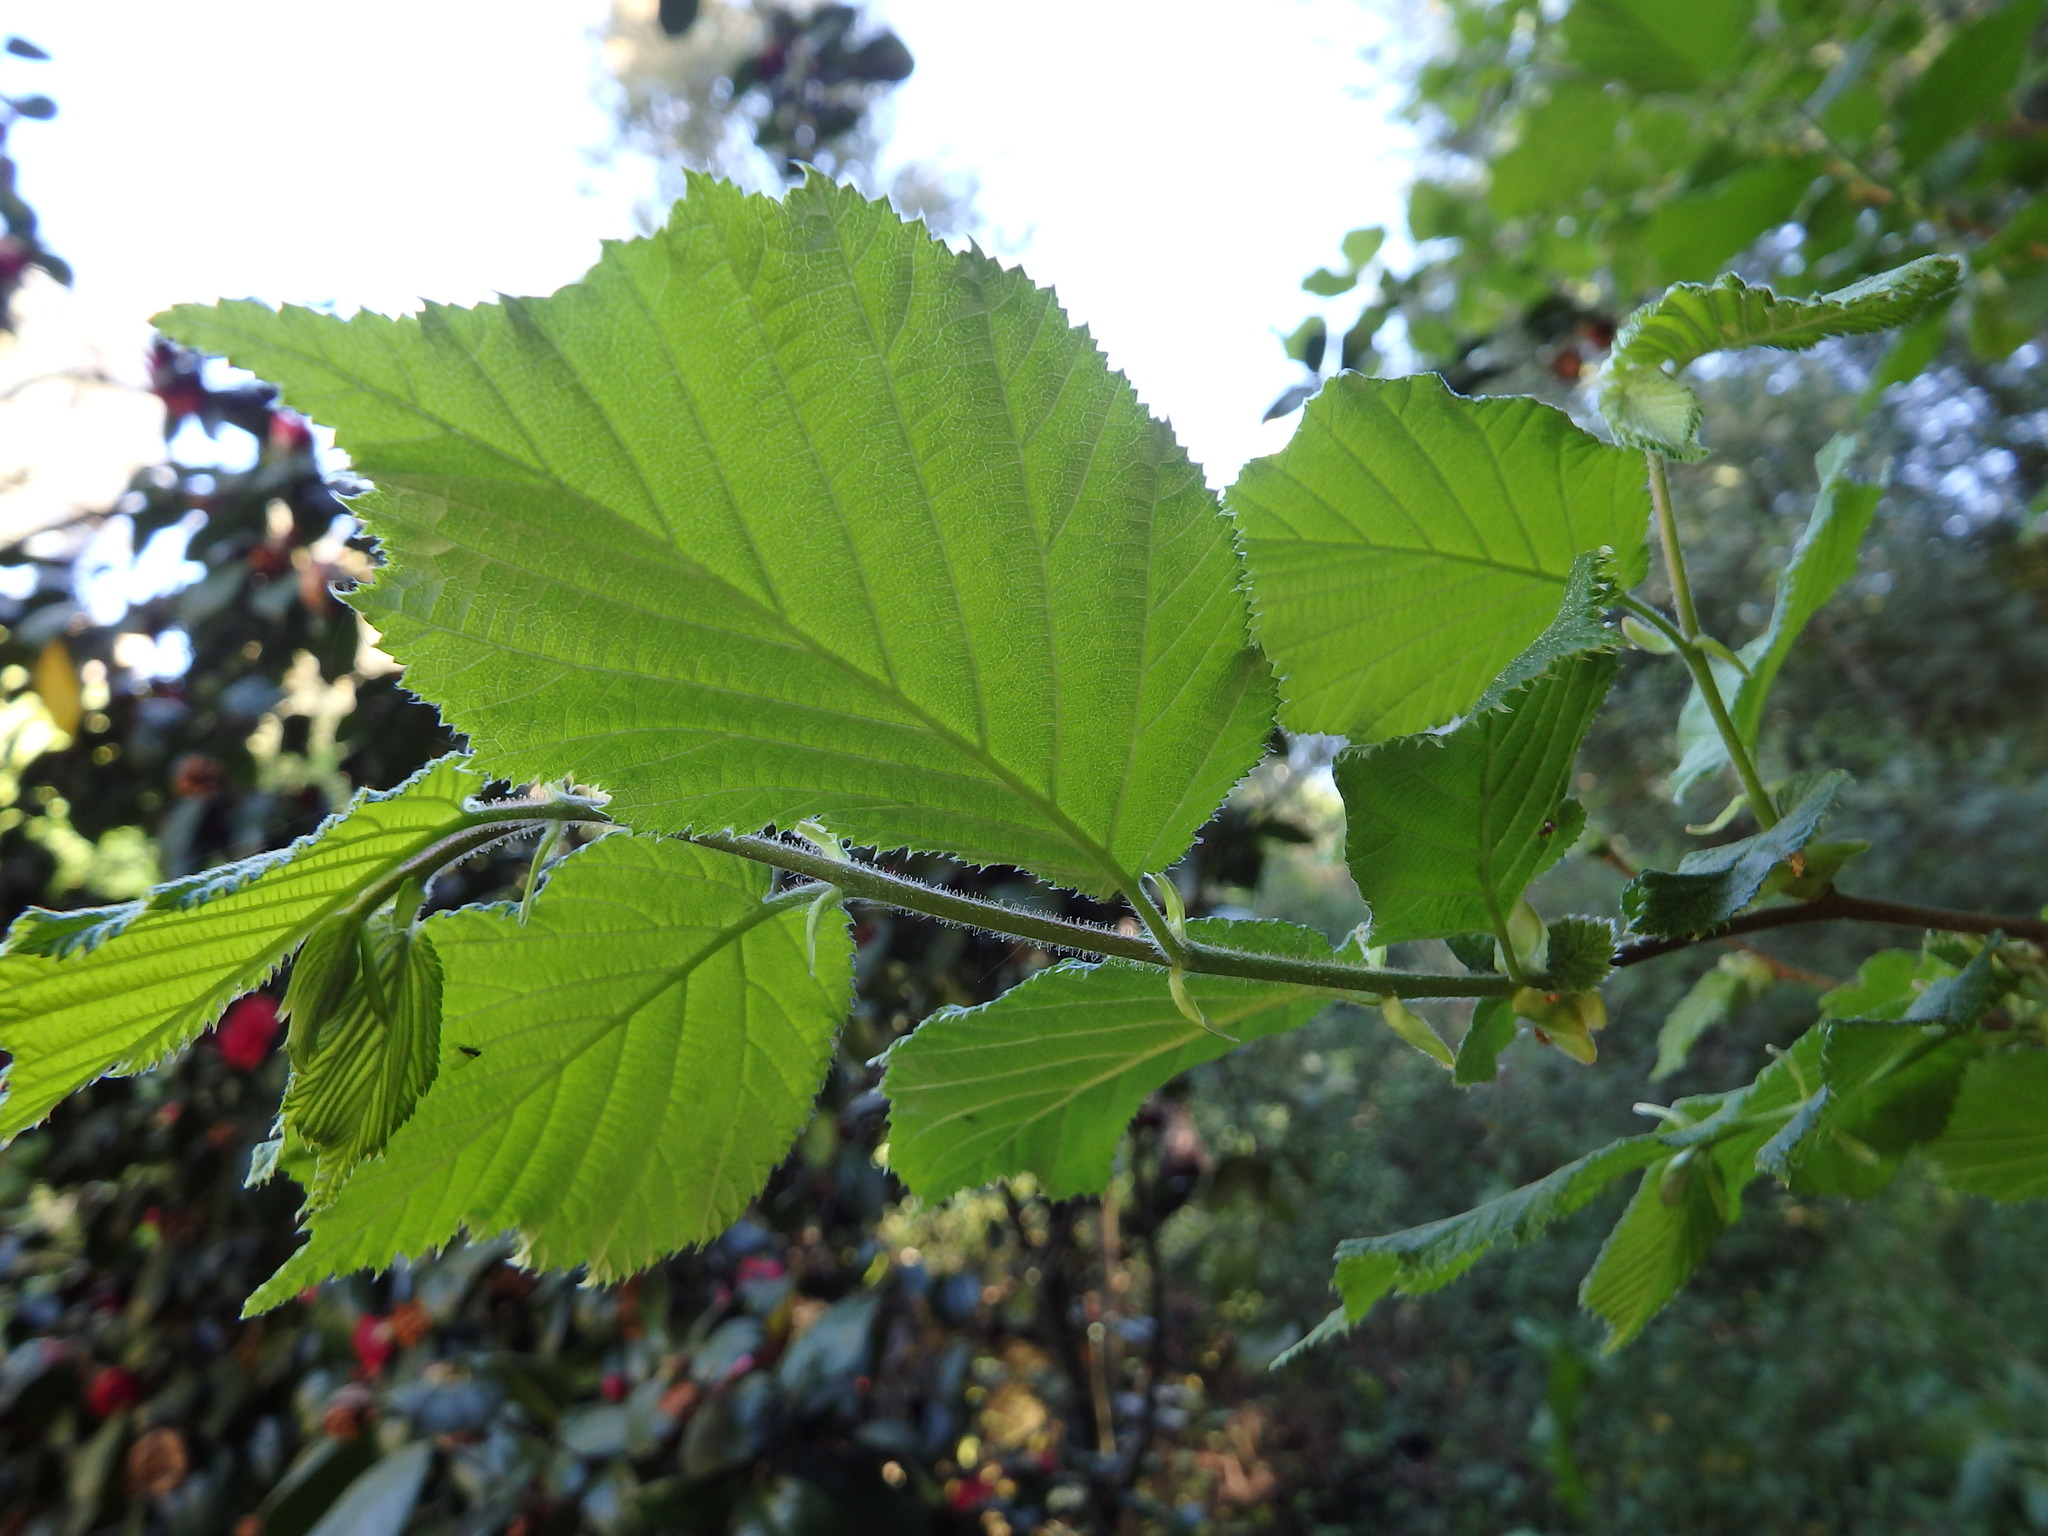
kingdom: Plantae
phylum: Tracheophyta
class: Magnoliopsida
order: Fagales
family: Betulaceae
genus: Corylus
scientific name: Corylus avellana
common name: European hazel
